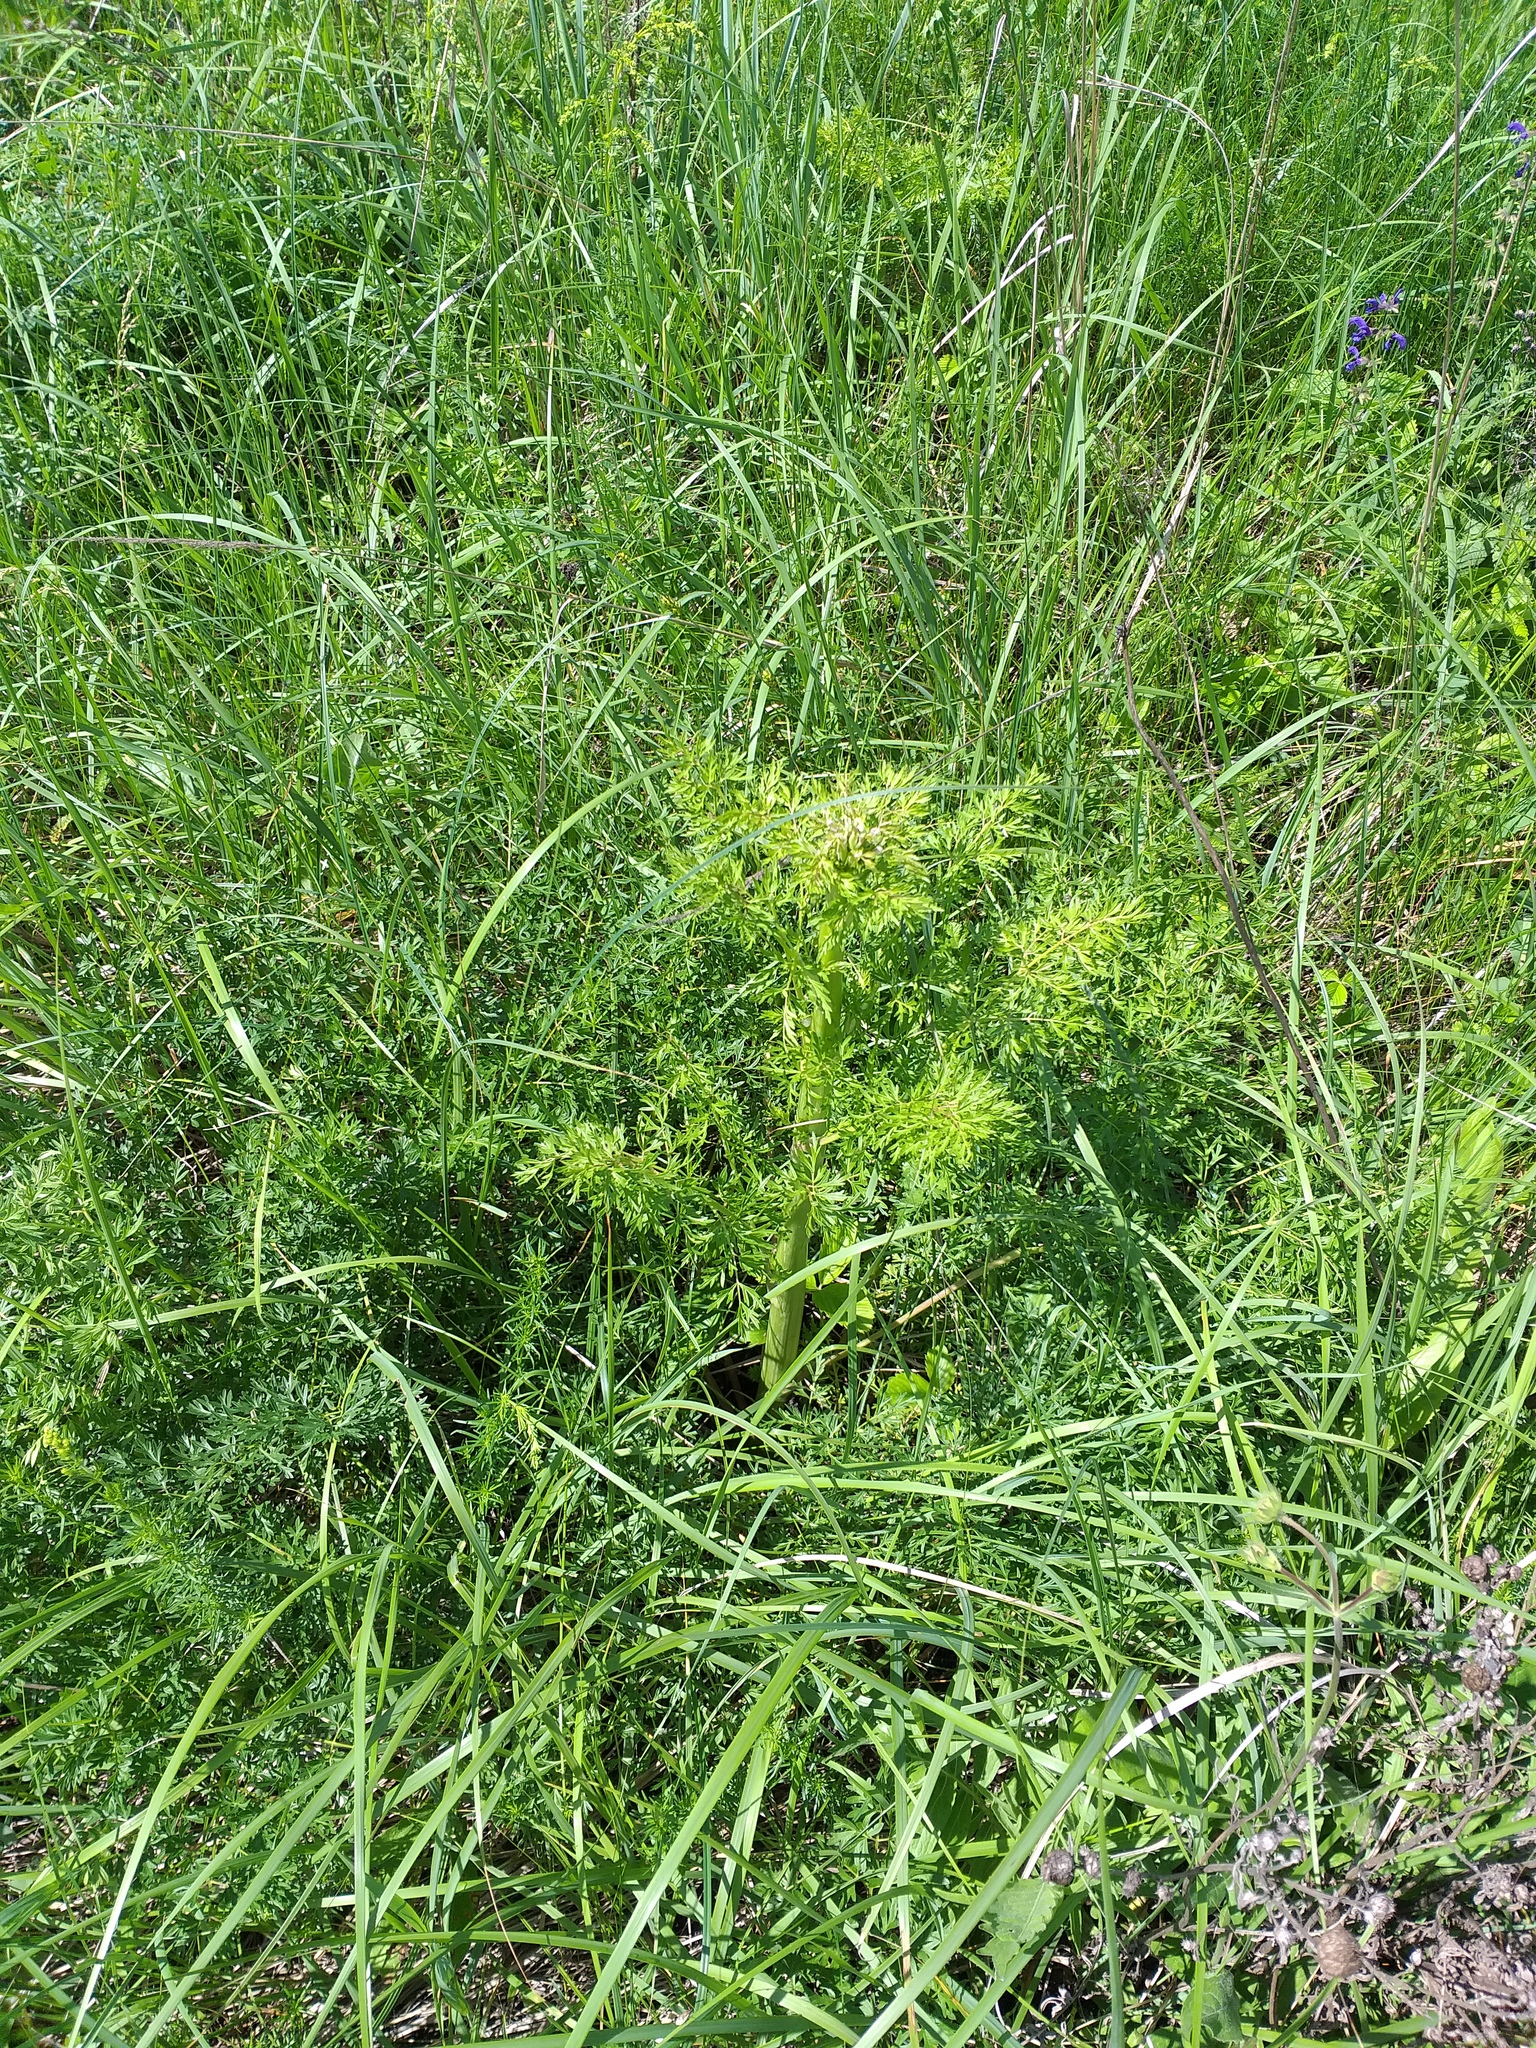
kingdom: Plantae
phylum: Tracheophyta
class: Magnoliopsida
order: Apiales
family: Apiaceae
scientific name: Apiaceae
